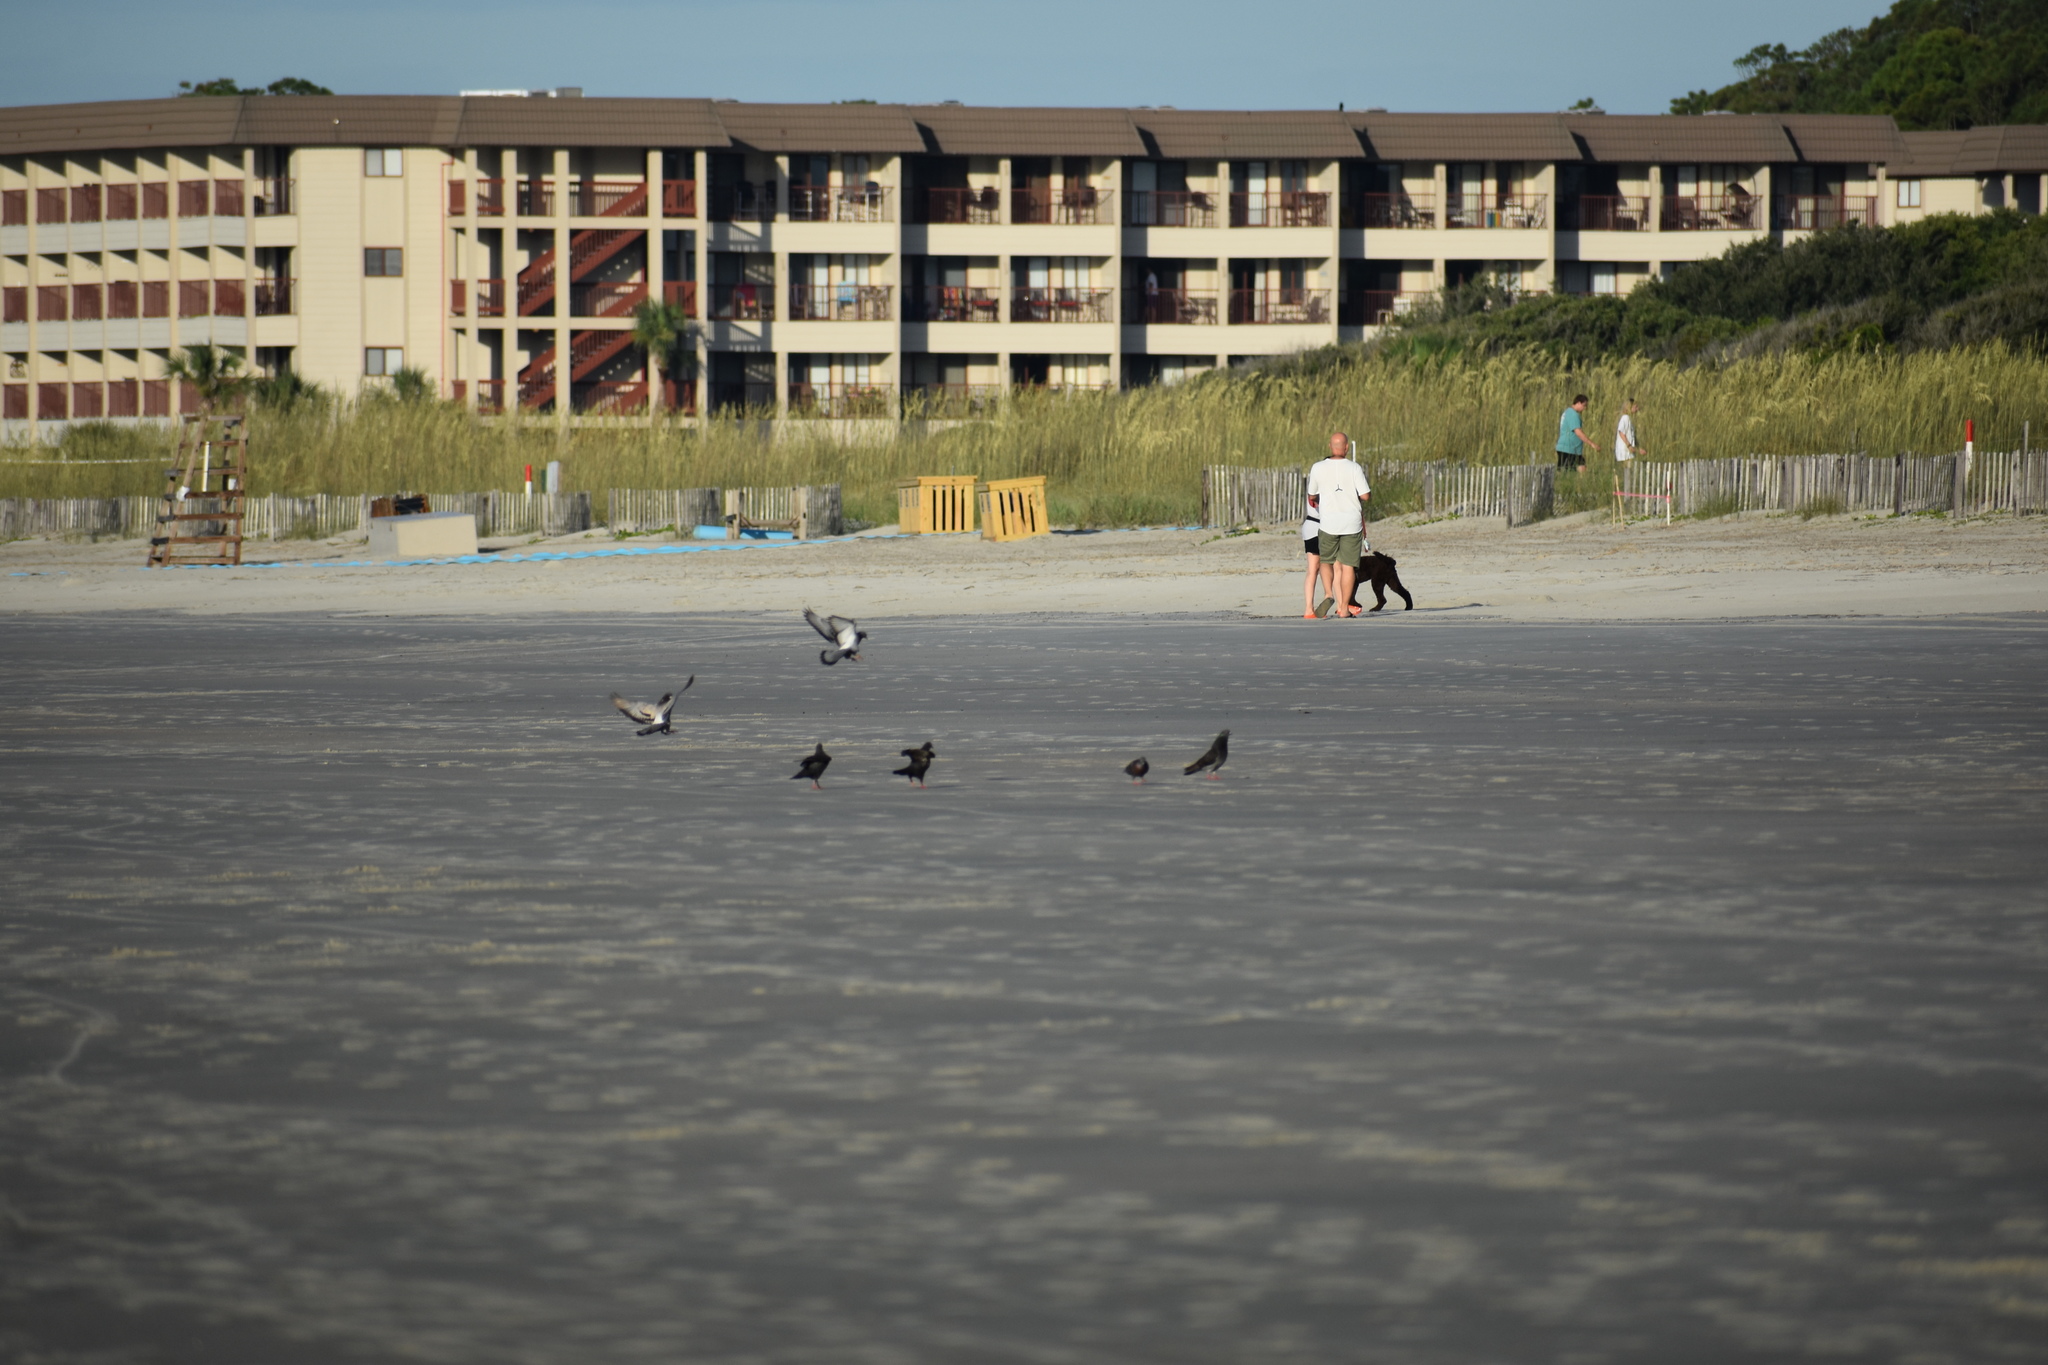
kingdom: Animalia
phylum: Chordata
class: Aves
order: Columbiformes
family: Columbidae
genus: Columba
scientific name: Columba livia
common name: Rock pigeon
